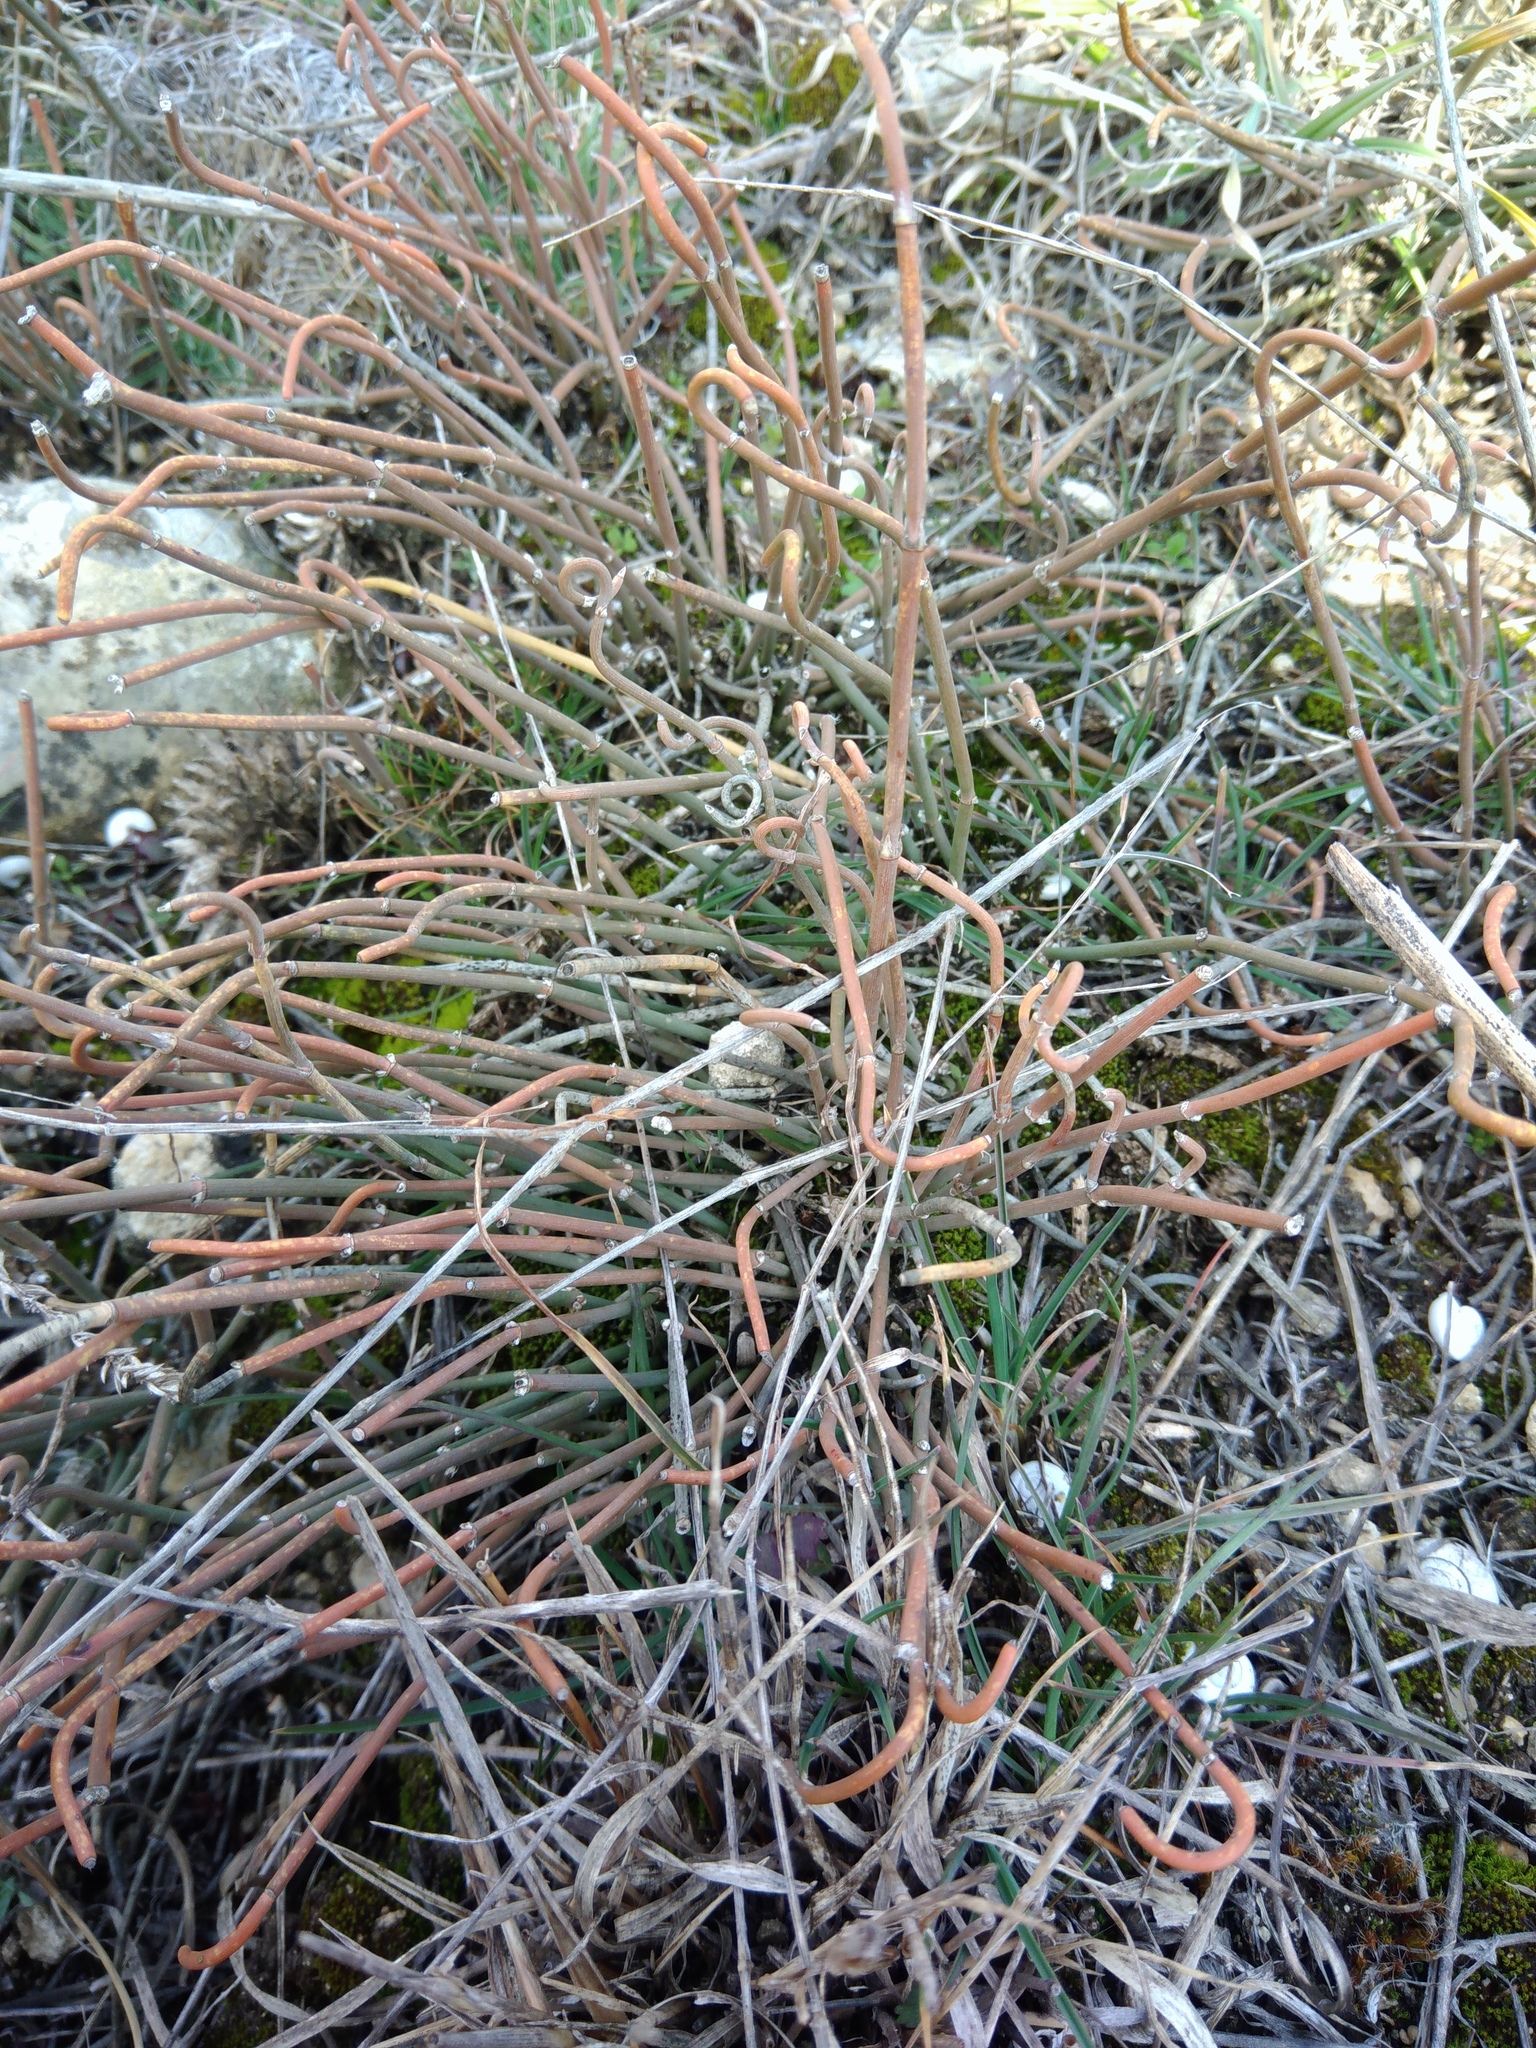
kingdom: Plantae
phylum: Tracheophyta
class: Gnetopsida
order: Ephedrales
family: Ephedraceae
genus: Ephedra
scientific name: Ephedra distachya
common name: Sea grape
